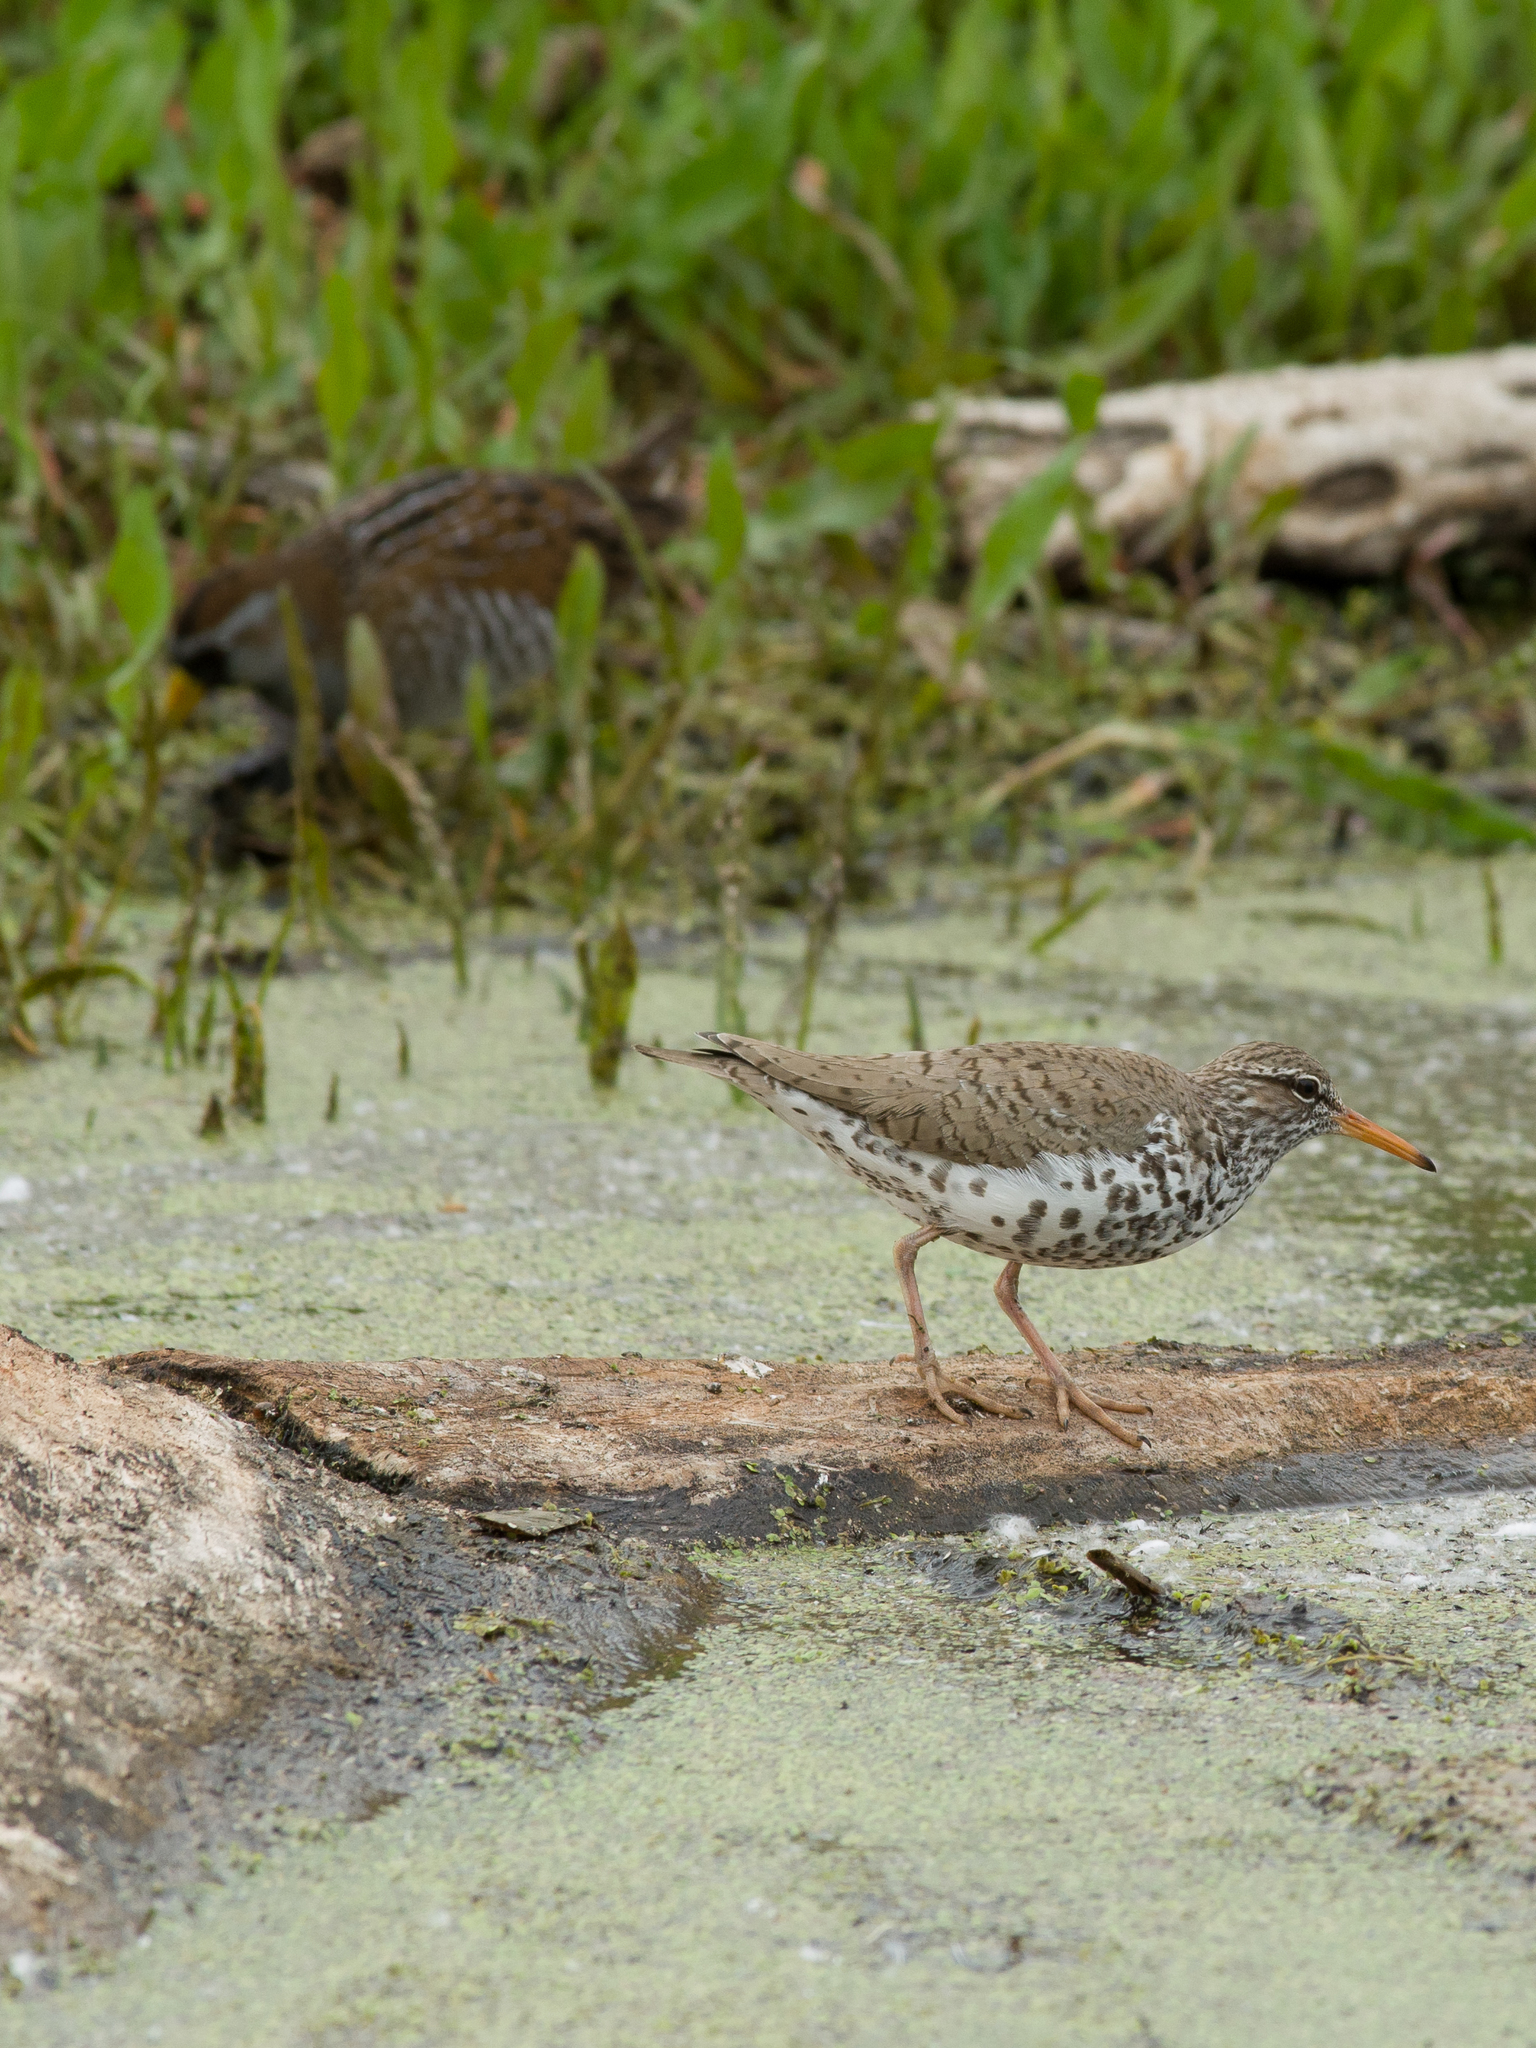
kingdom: Animalia
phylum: Chordata
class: Aves
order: Charadriiformes
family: Scolopacidae
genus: Actitis
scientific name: Actitis macularius
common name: Spotted sandpiper
